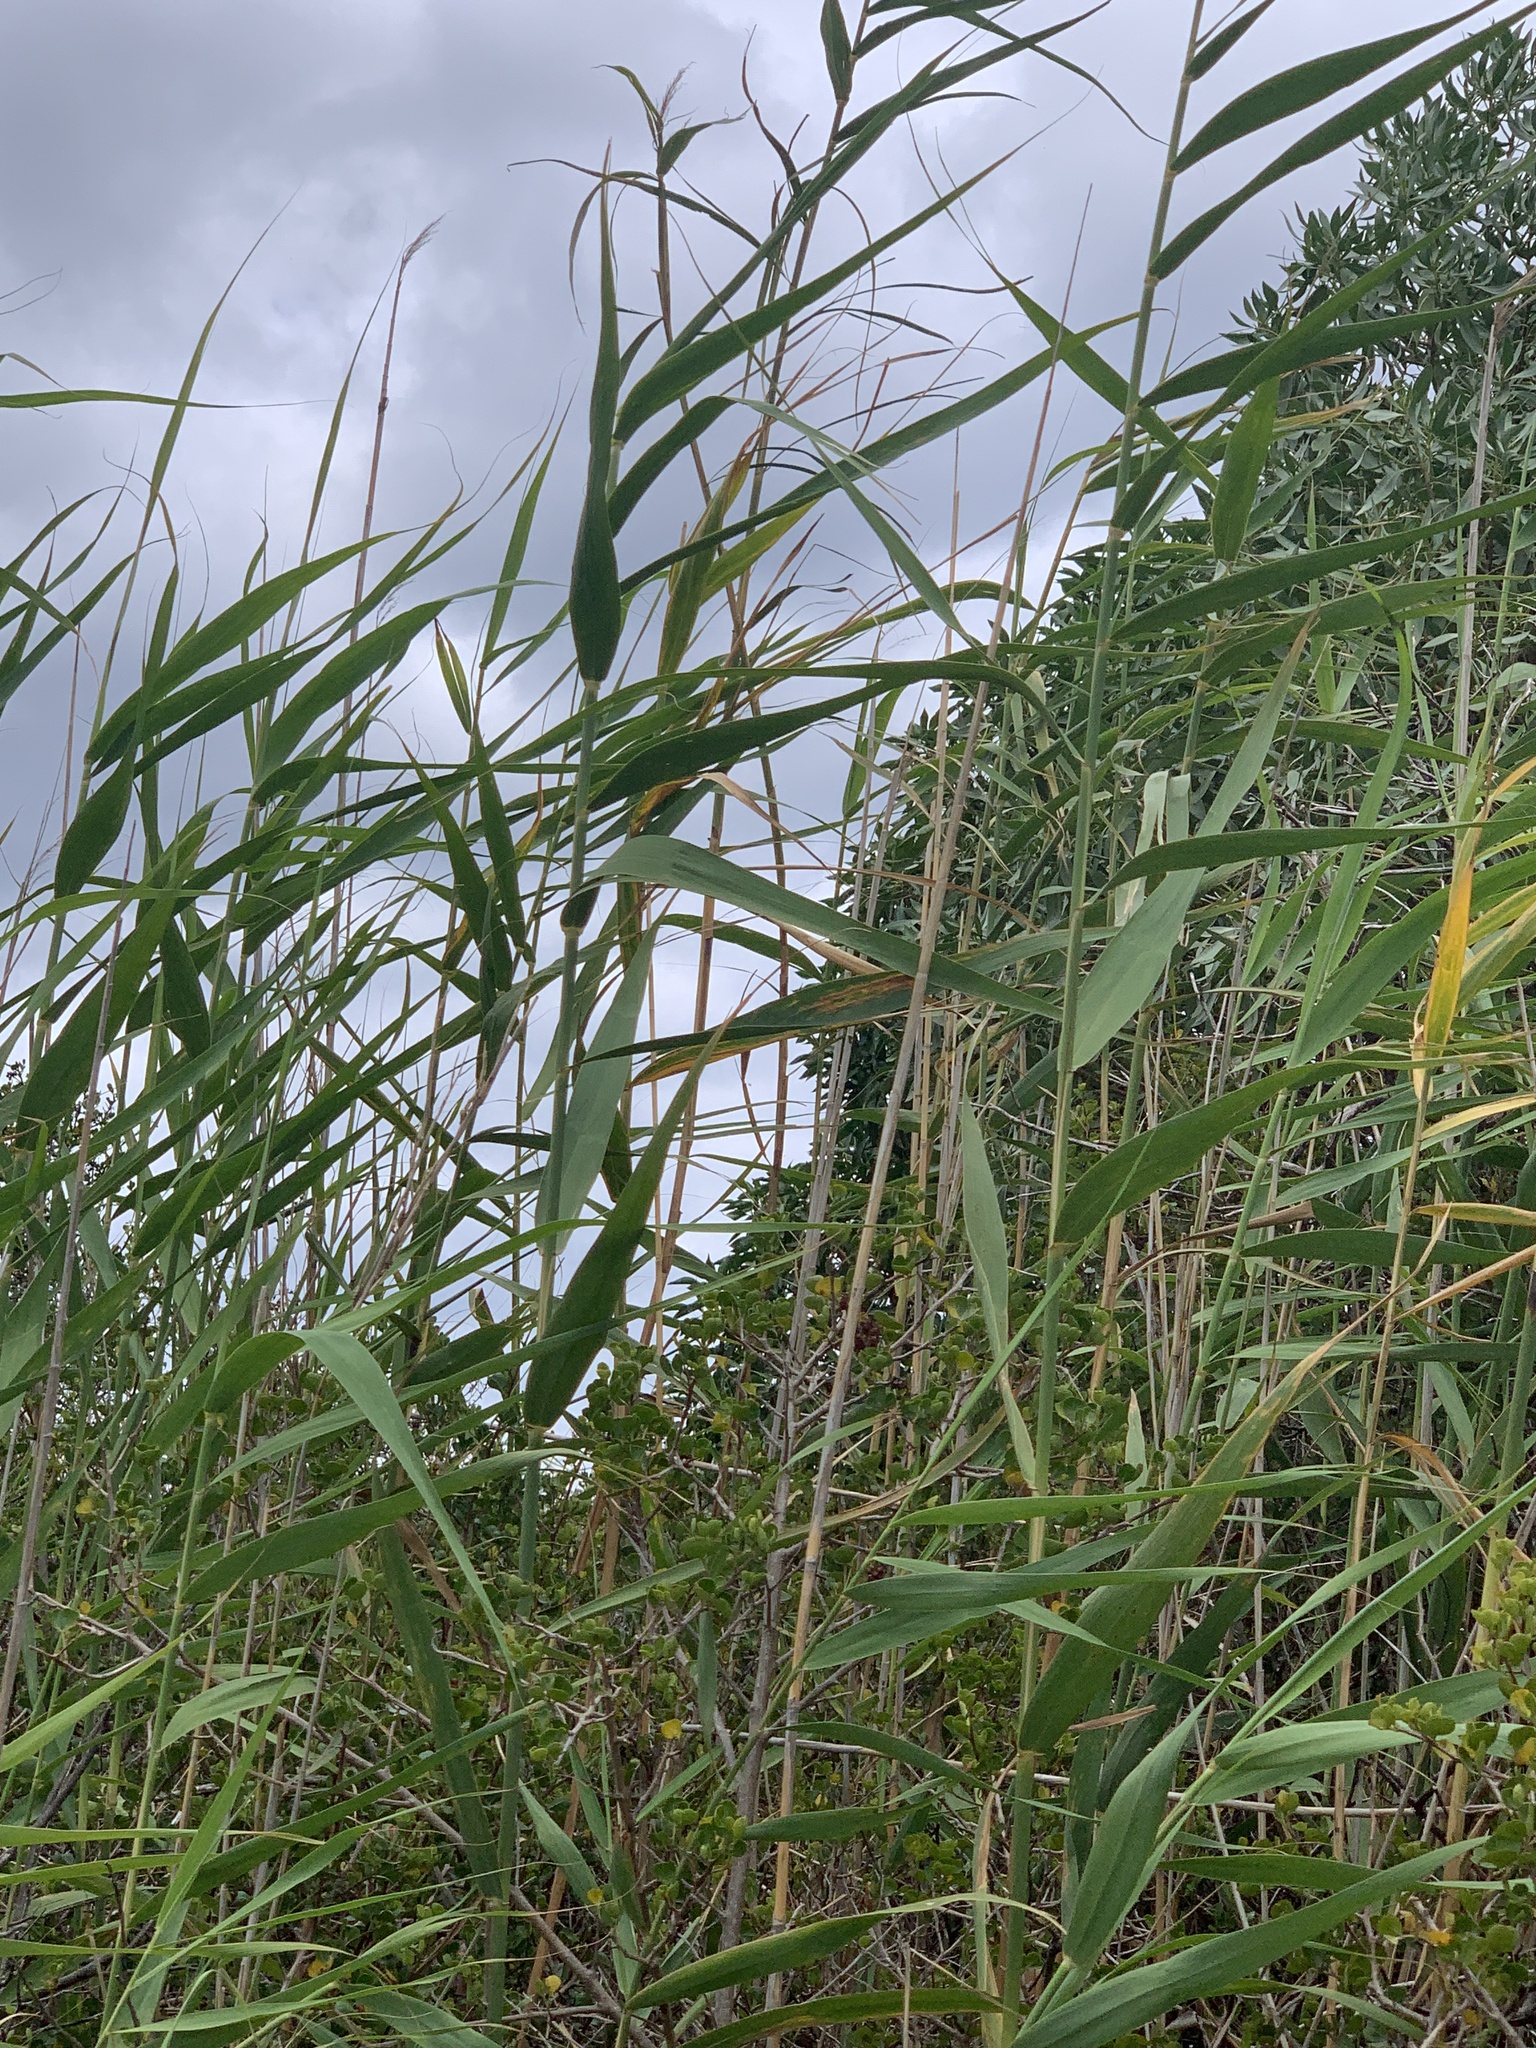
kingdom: Plantae
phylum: Tracheophyta
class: Liliopsida
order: Poales
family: Poaceae
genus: Phragmites
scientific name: Phragmites australis
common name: Common reed
